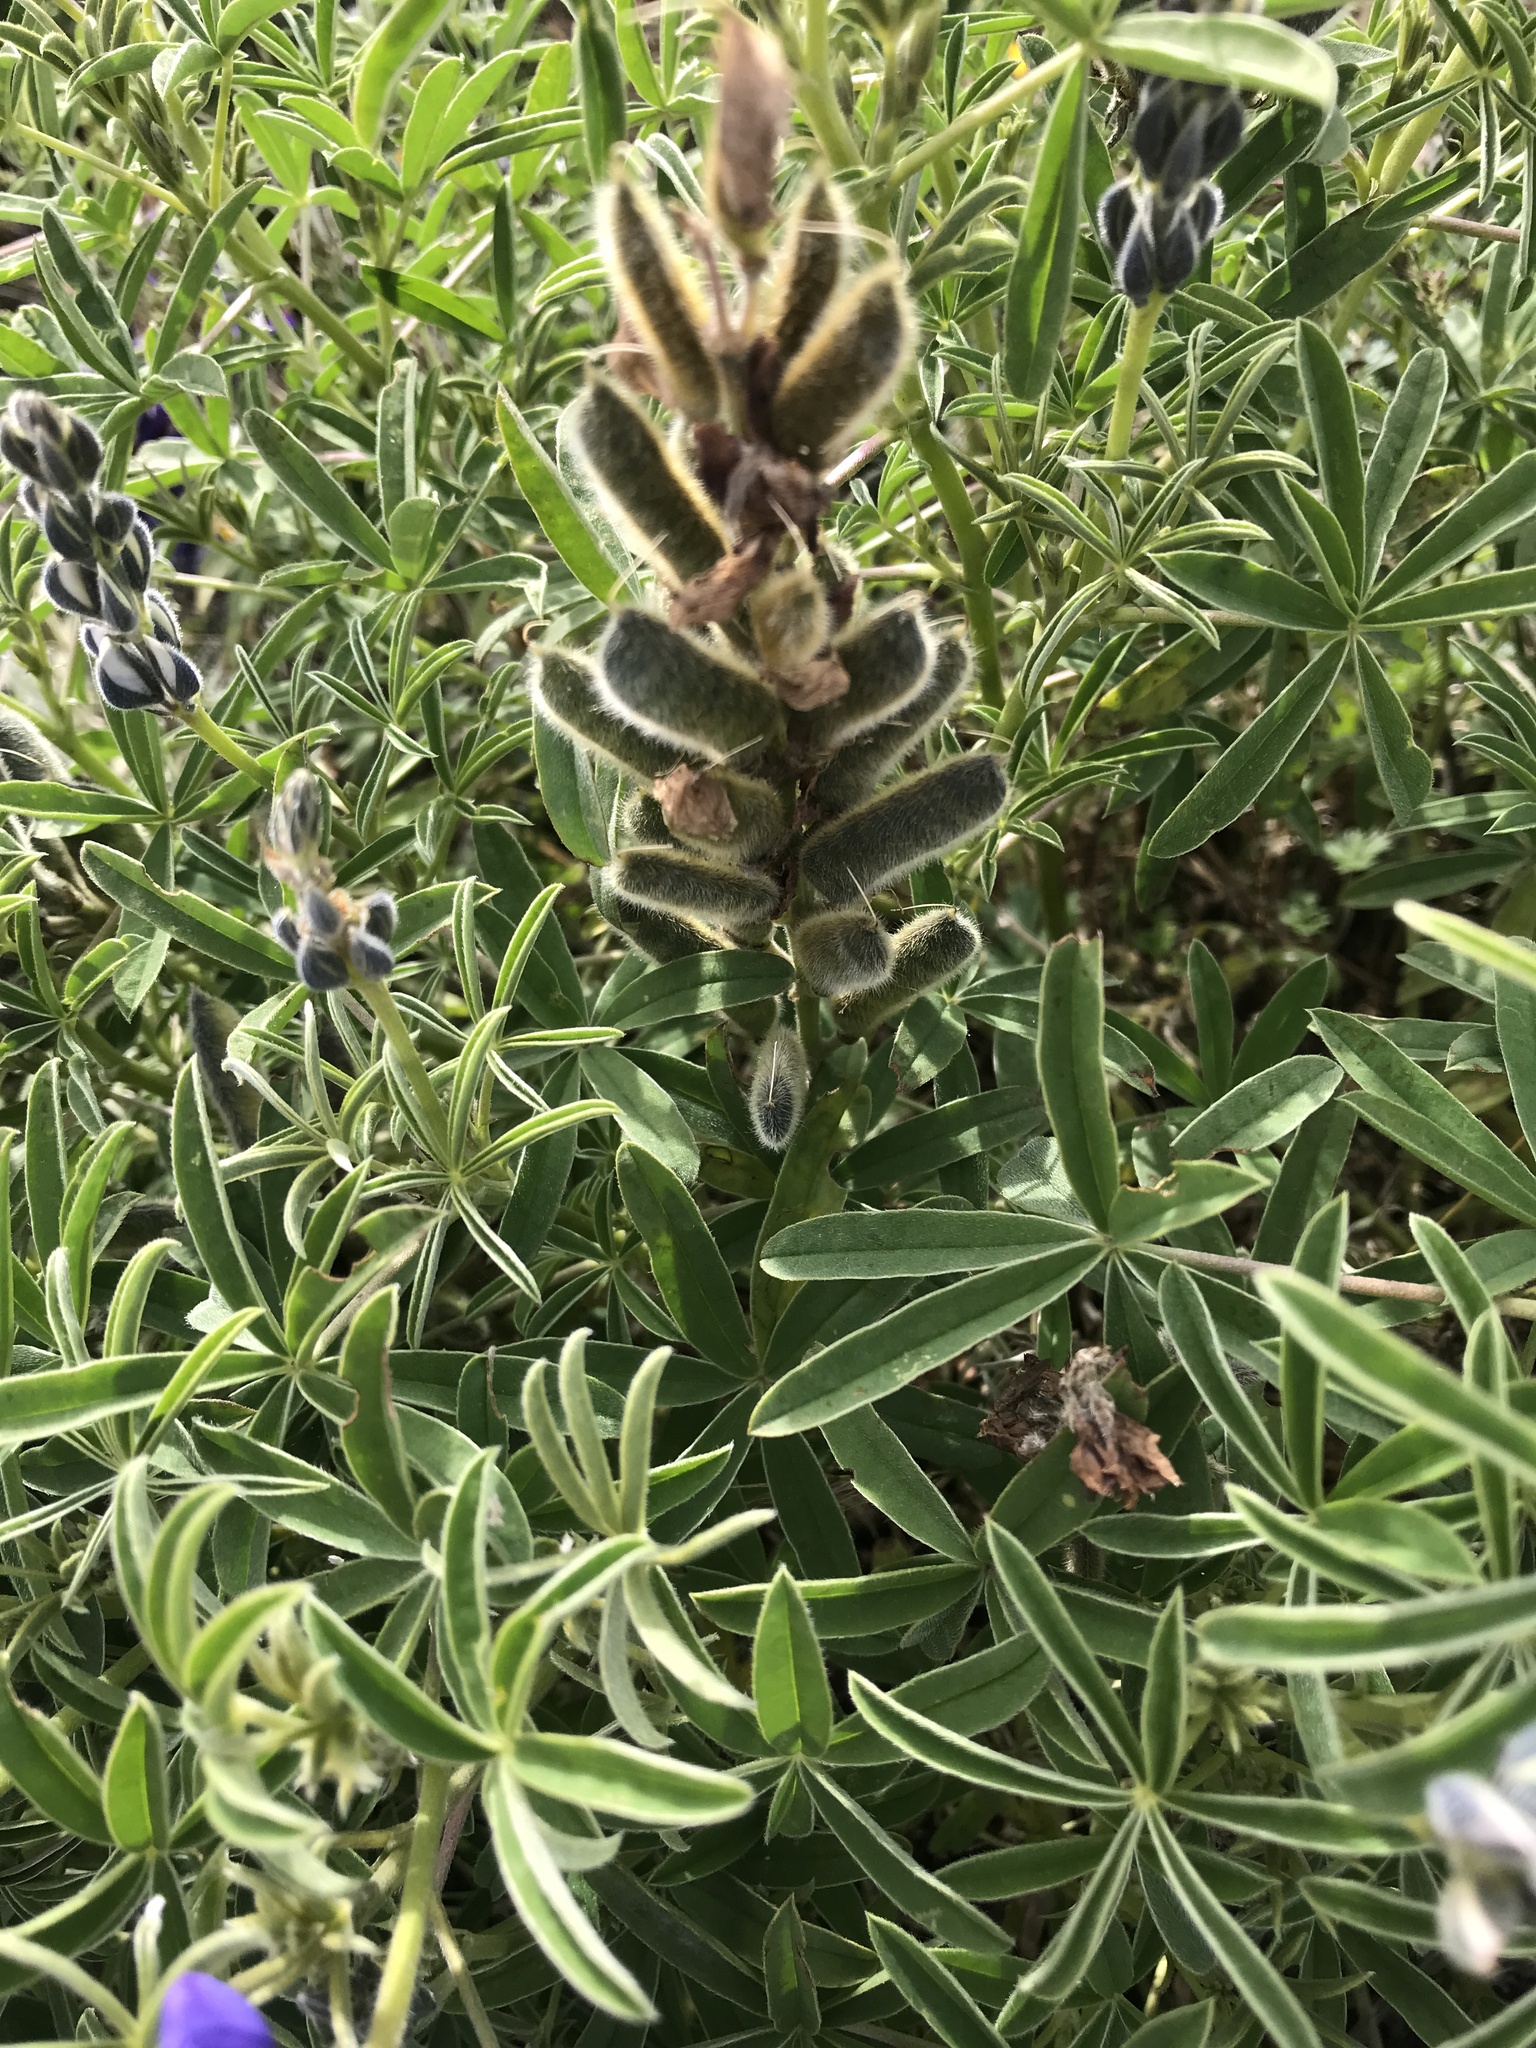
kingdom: Plantae
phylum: Tracheophyta
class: Magnoliopsida
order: Fabales
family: Fabaceae
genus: Lupinus
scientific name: Lupinus pubescens
